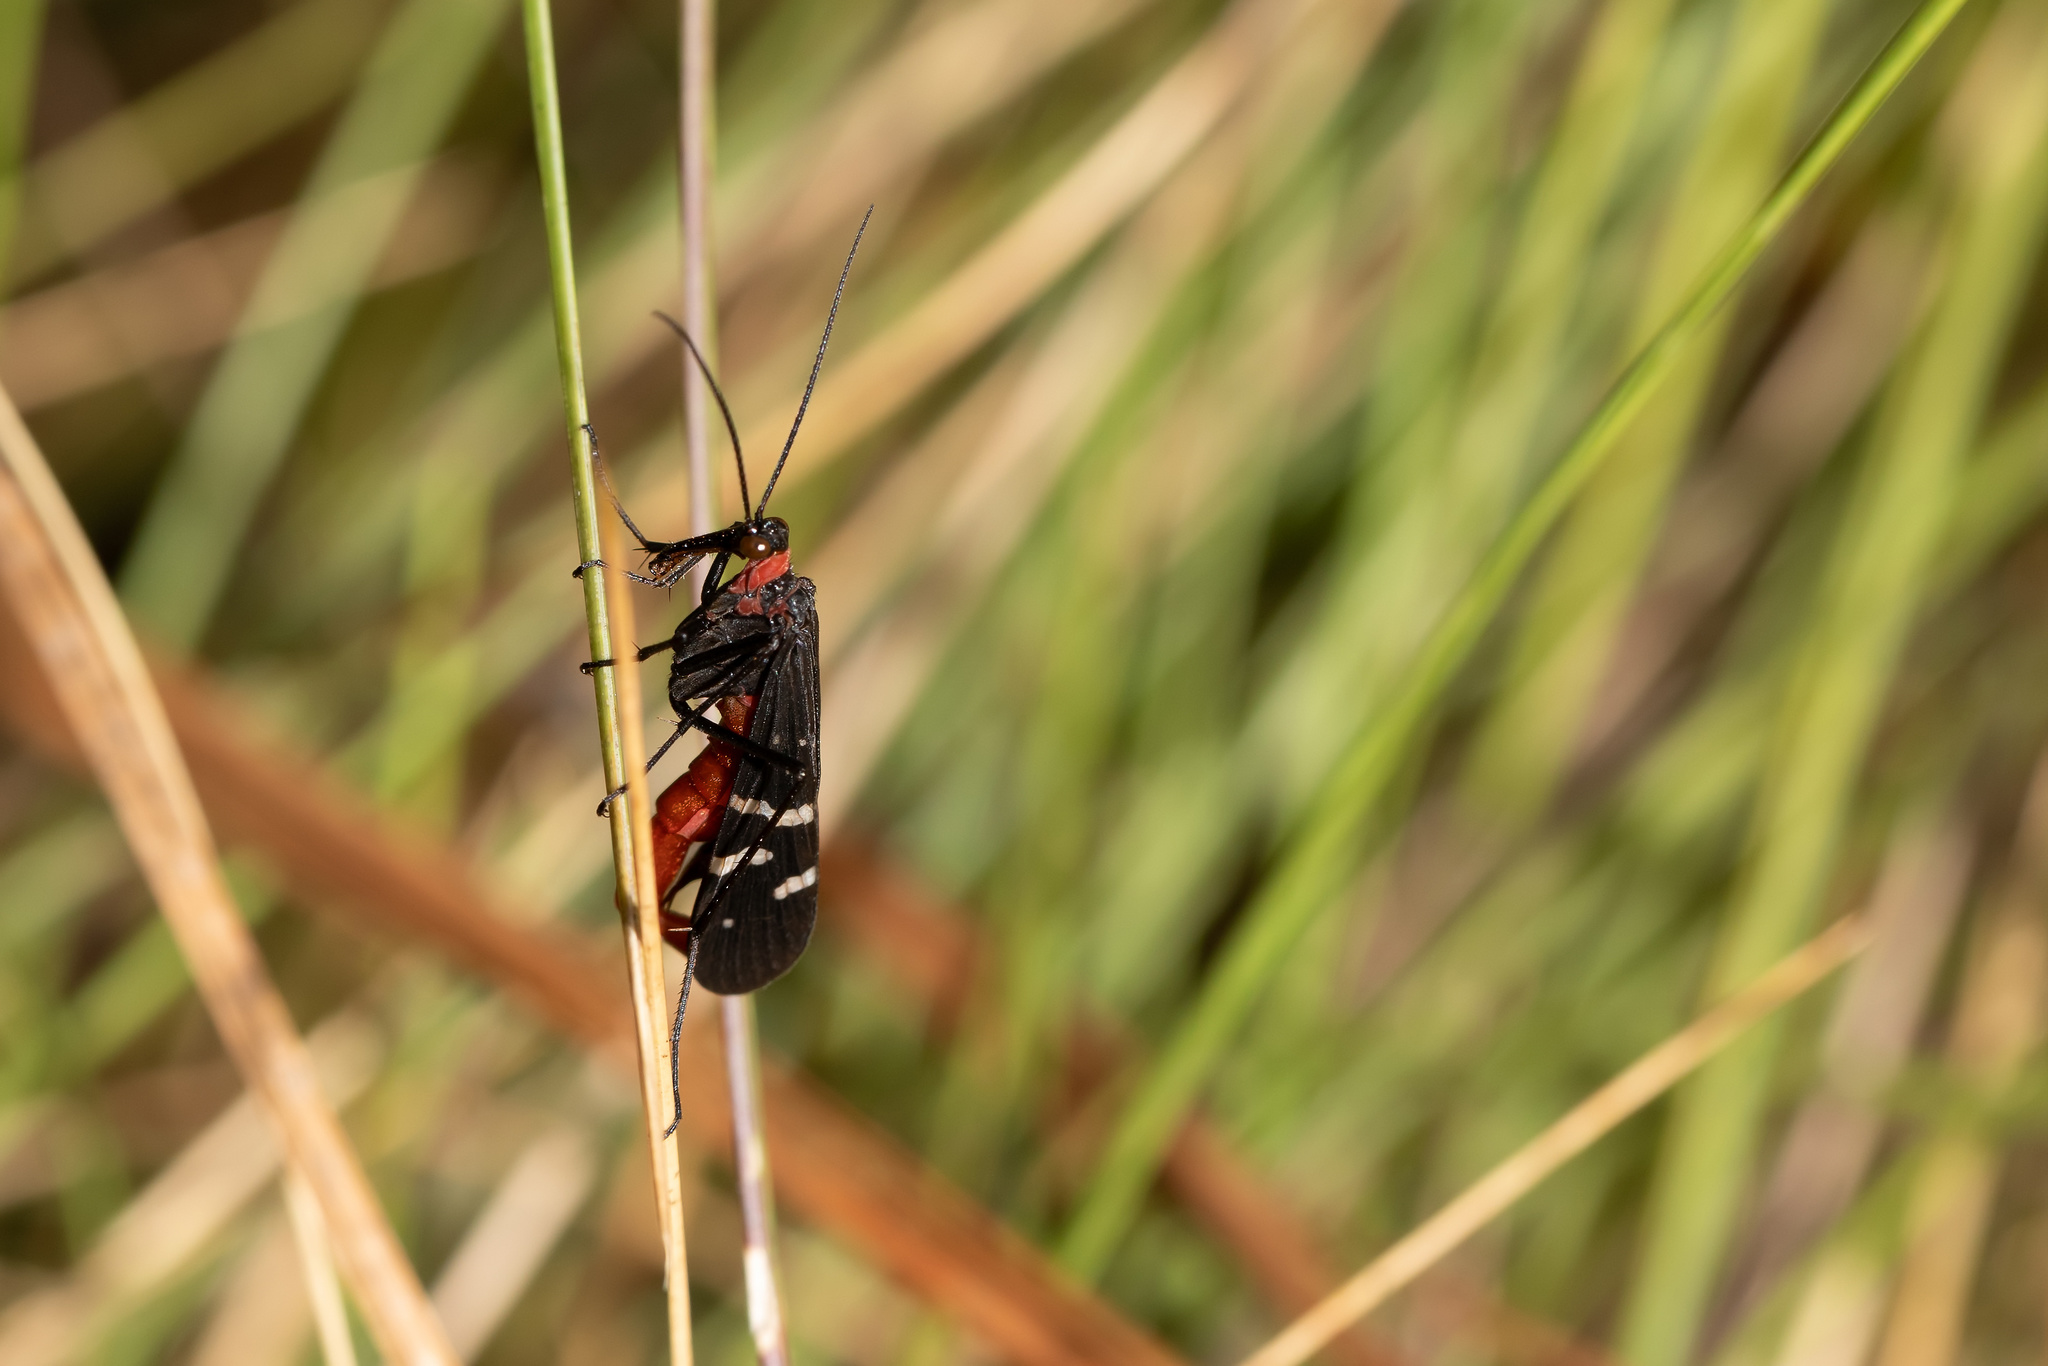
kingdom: Animalia
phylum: Arthropoda
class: Insecta
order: Mecoptera
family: Panorpidae
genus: Panorpa
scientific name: Panorpa lugubris
